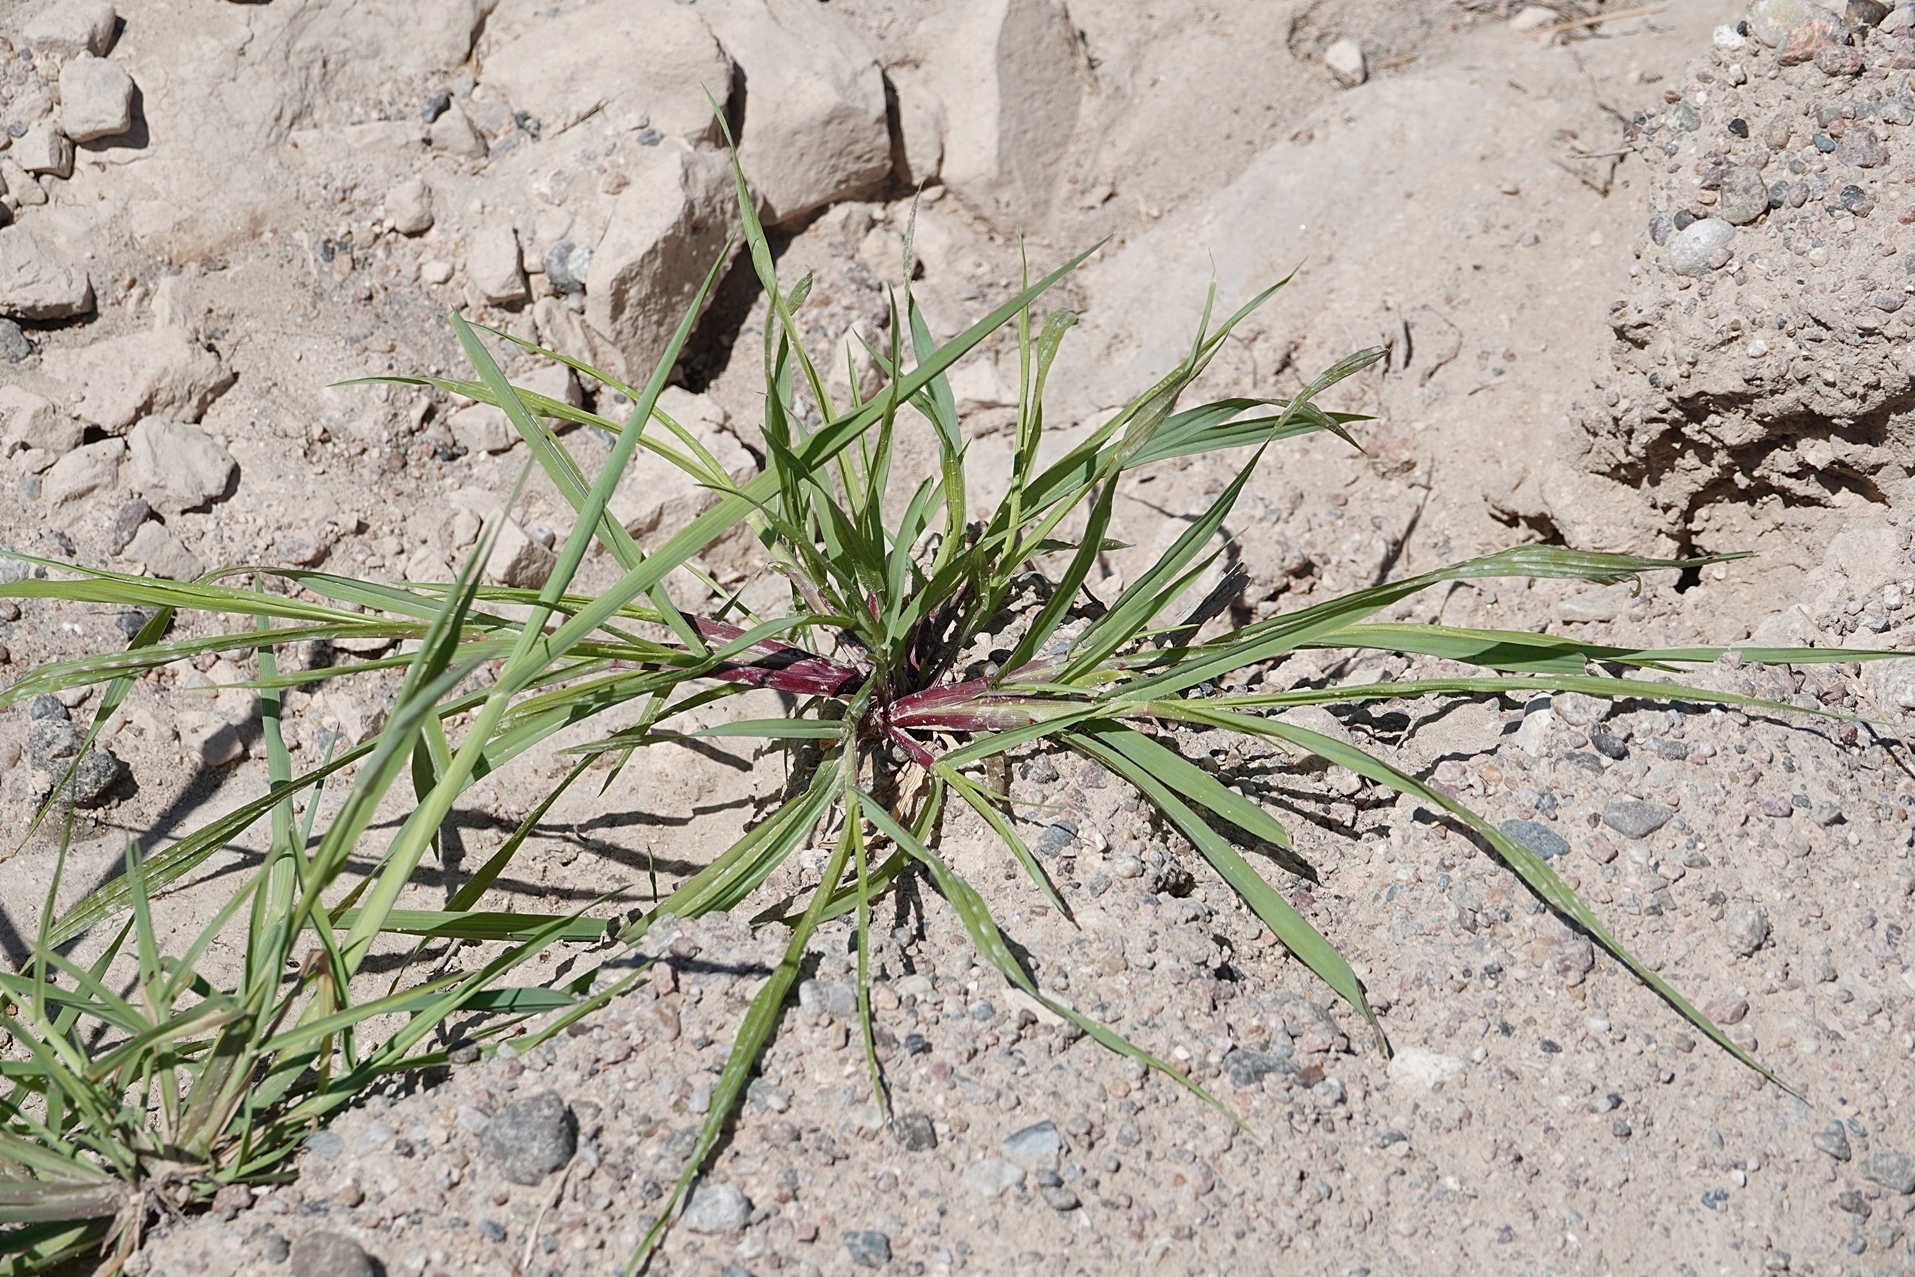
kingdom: Plantae
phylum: Tracheophyta
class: Liliopsida
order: Poales
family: Poaceae
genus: Echinochloa
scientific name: Echinochloa crus-galli
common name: Cockspur
